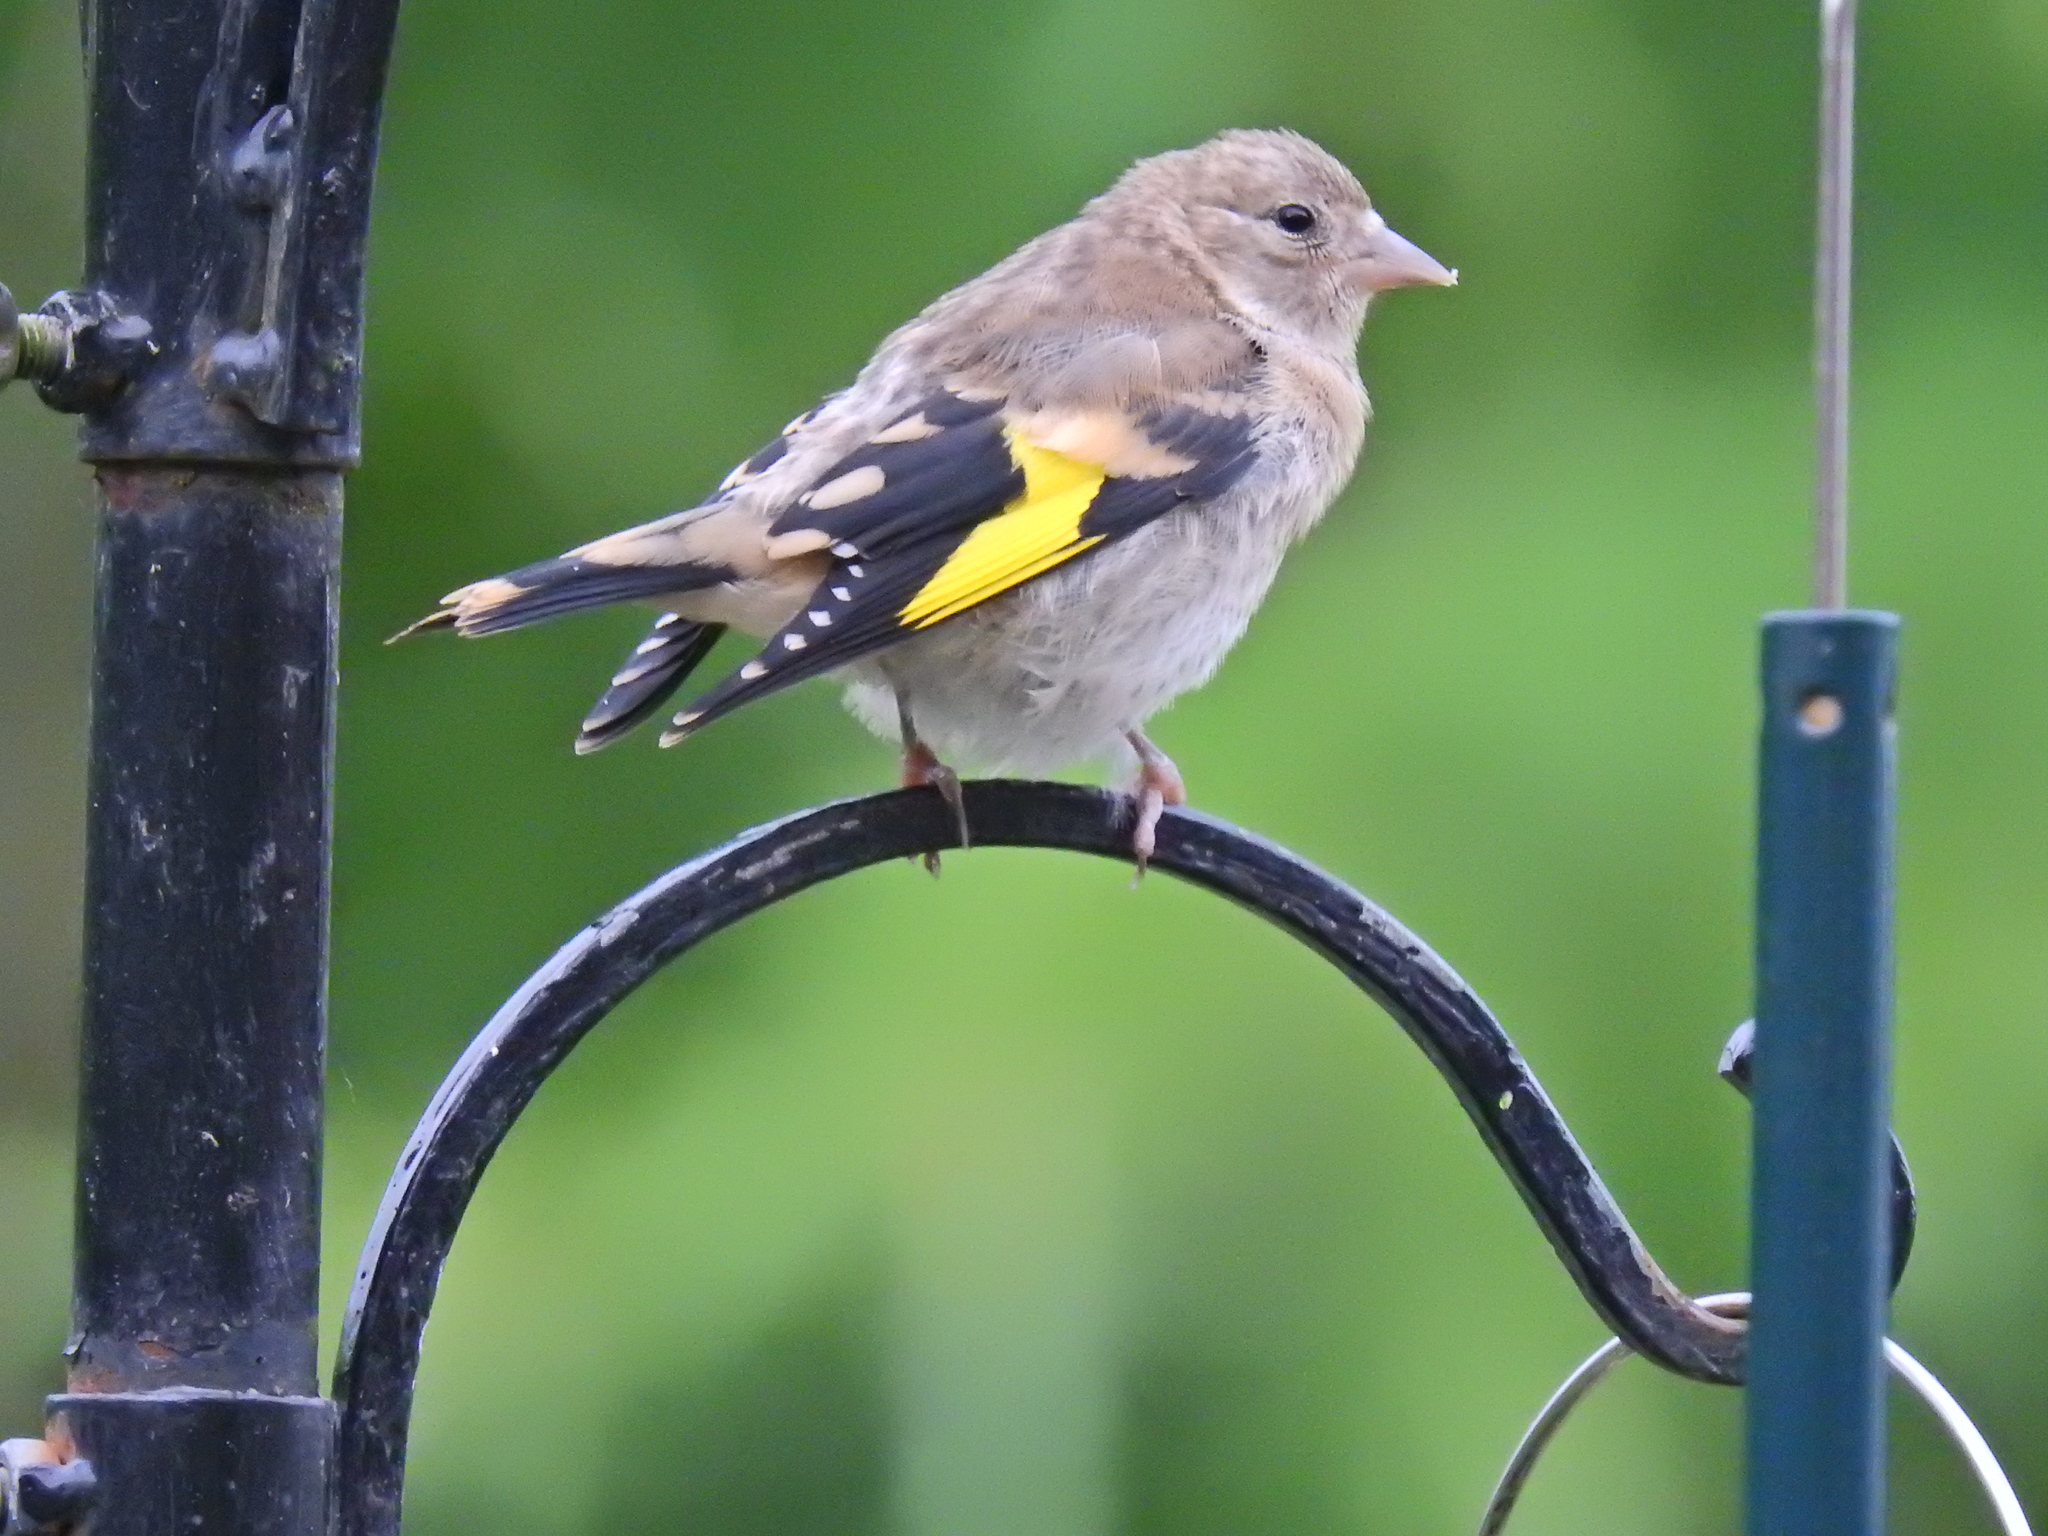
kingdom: Animalia
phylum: Chordata
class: Aves
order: Passeriformes
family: Fringillidae
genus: Carduelis
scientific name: Carduelis carduelis
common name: European goldfinch
